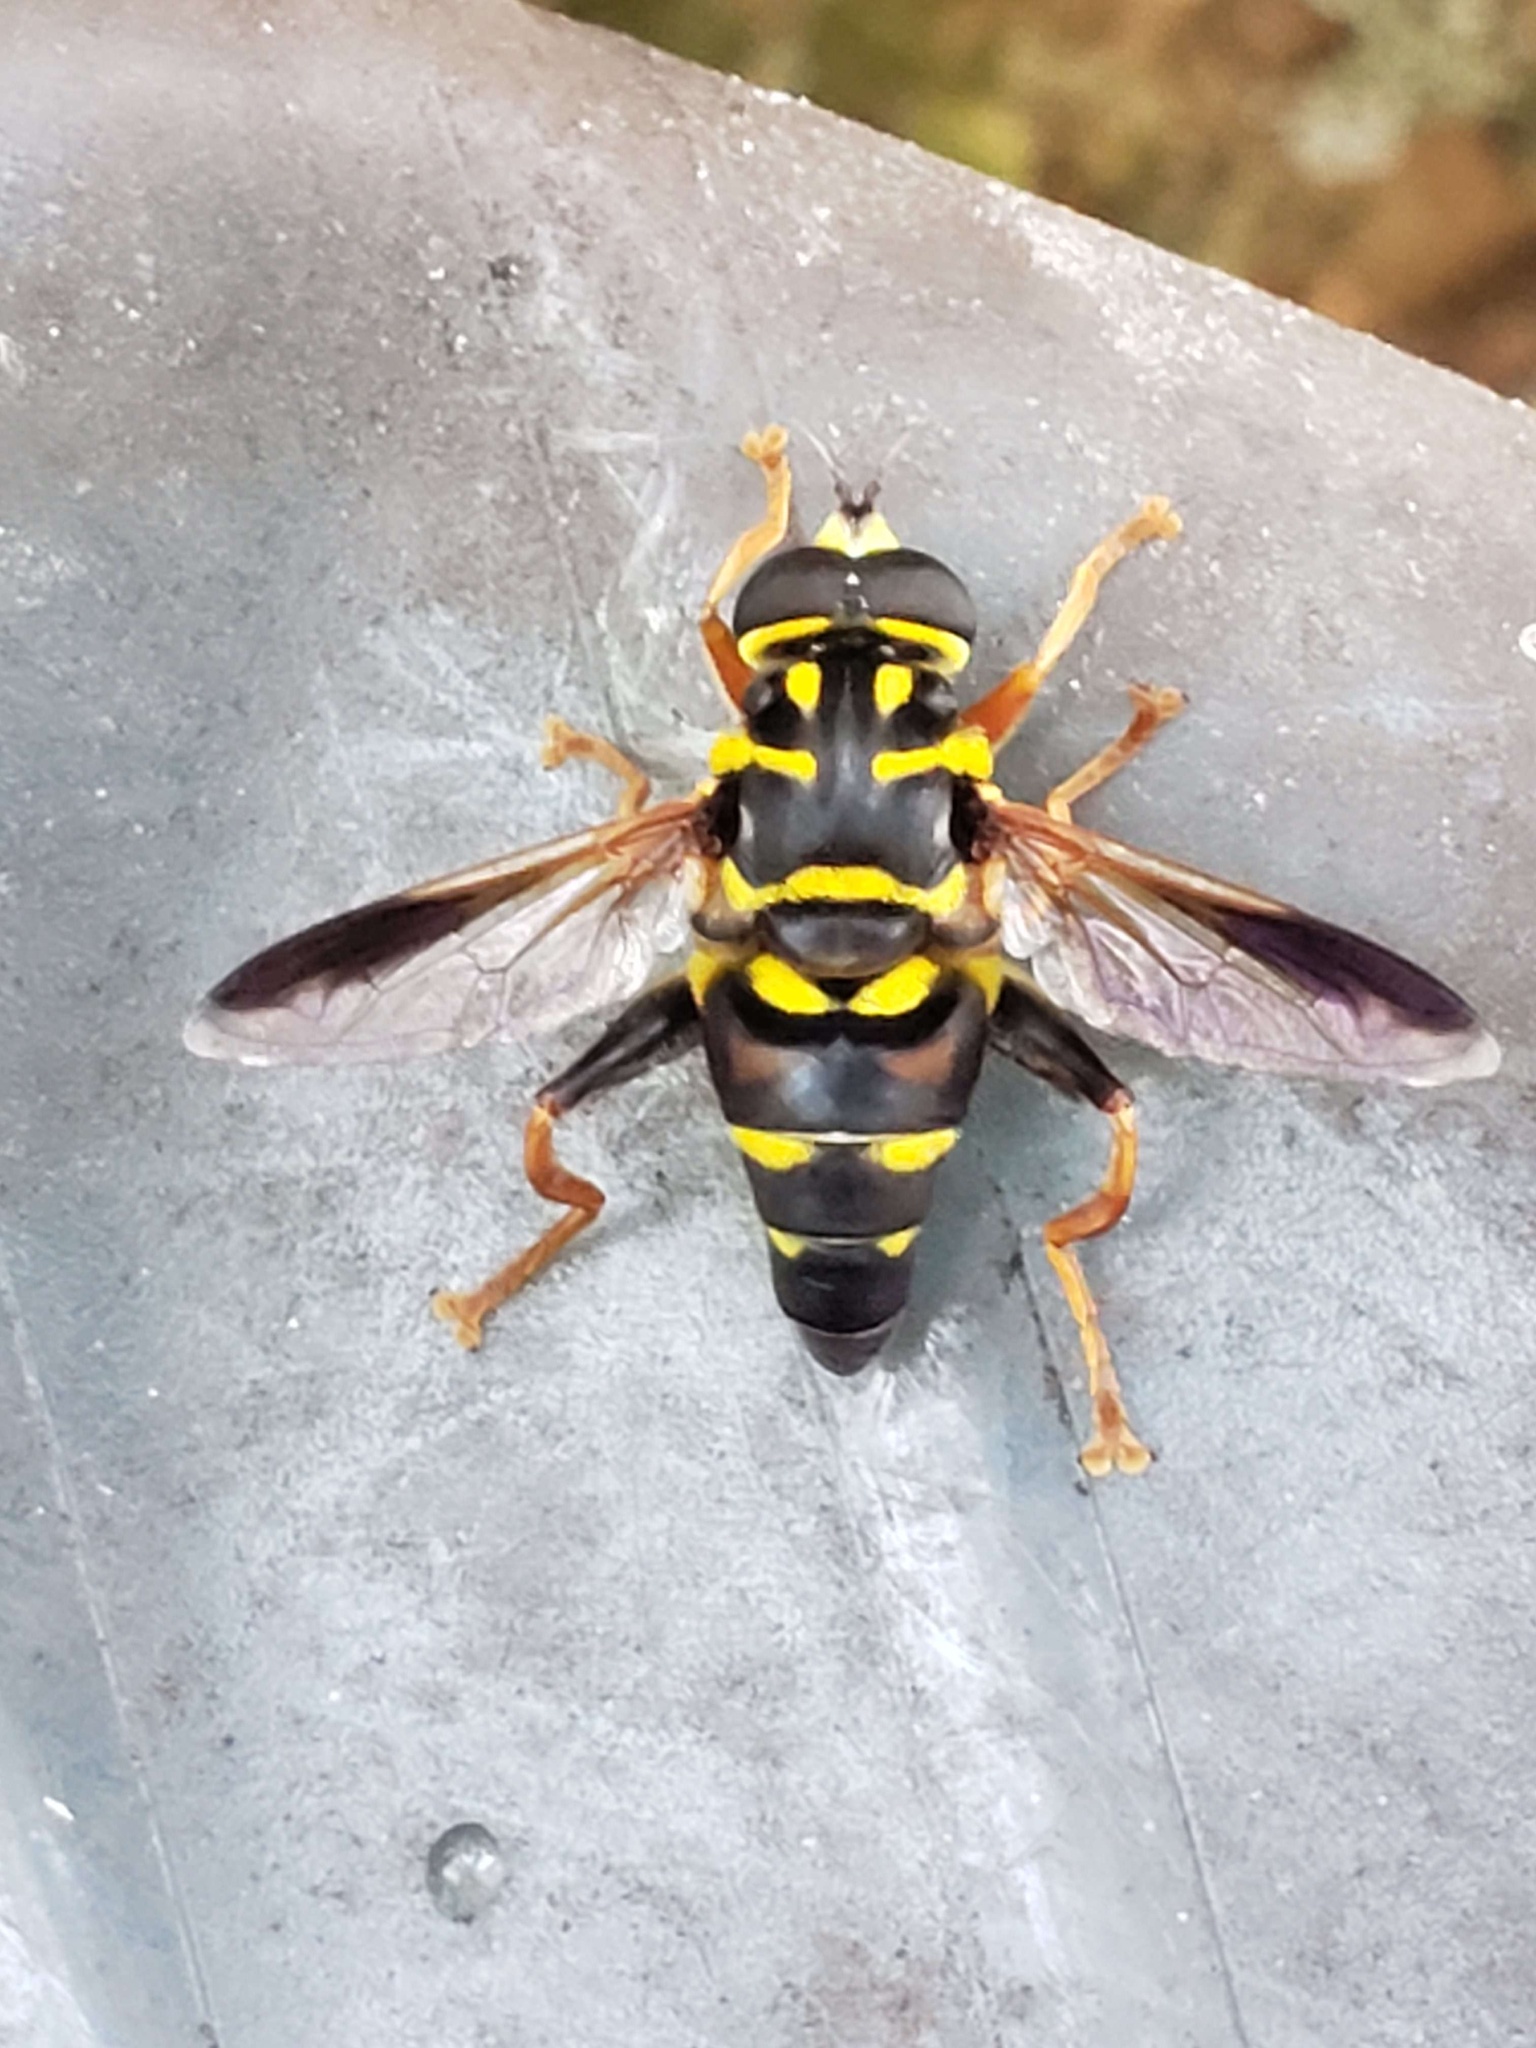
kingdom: Animalia
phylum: Arthropoda
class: Insecta
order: Diptera
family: Syrphidae
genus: Meromacrus
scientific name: Meromacrus acutus
